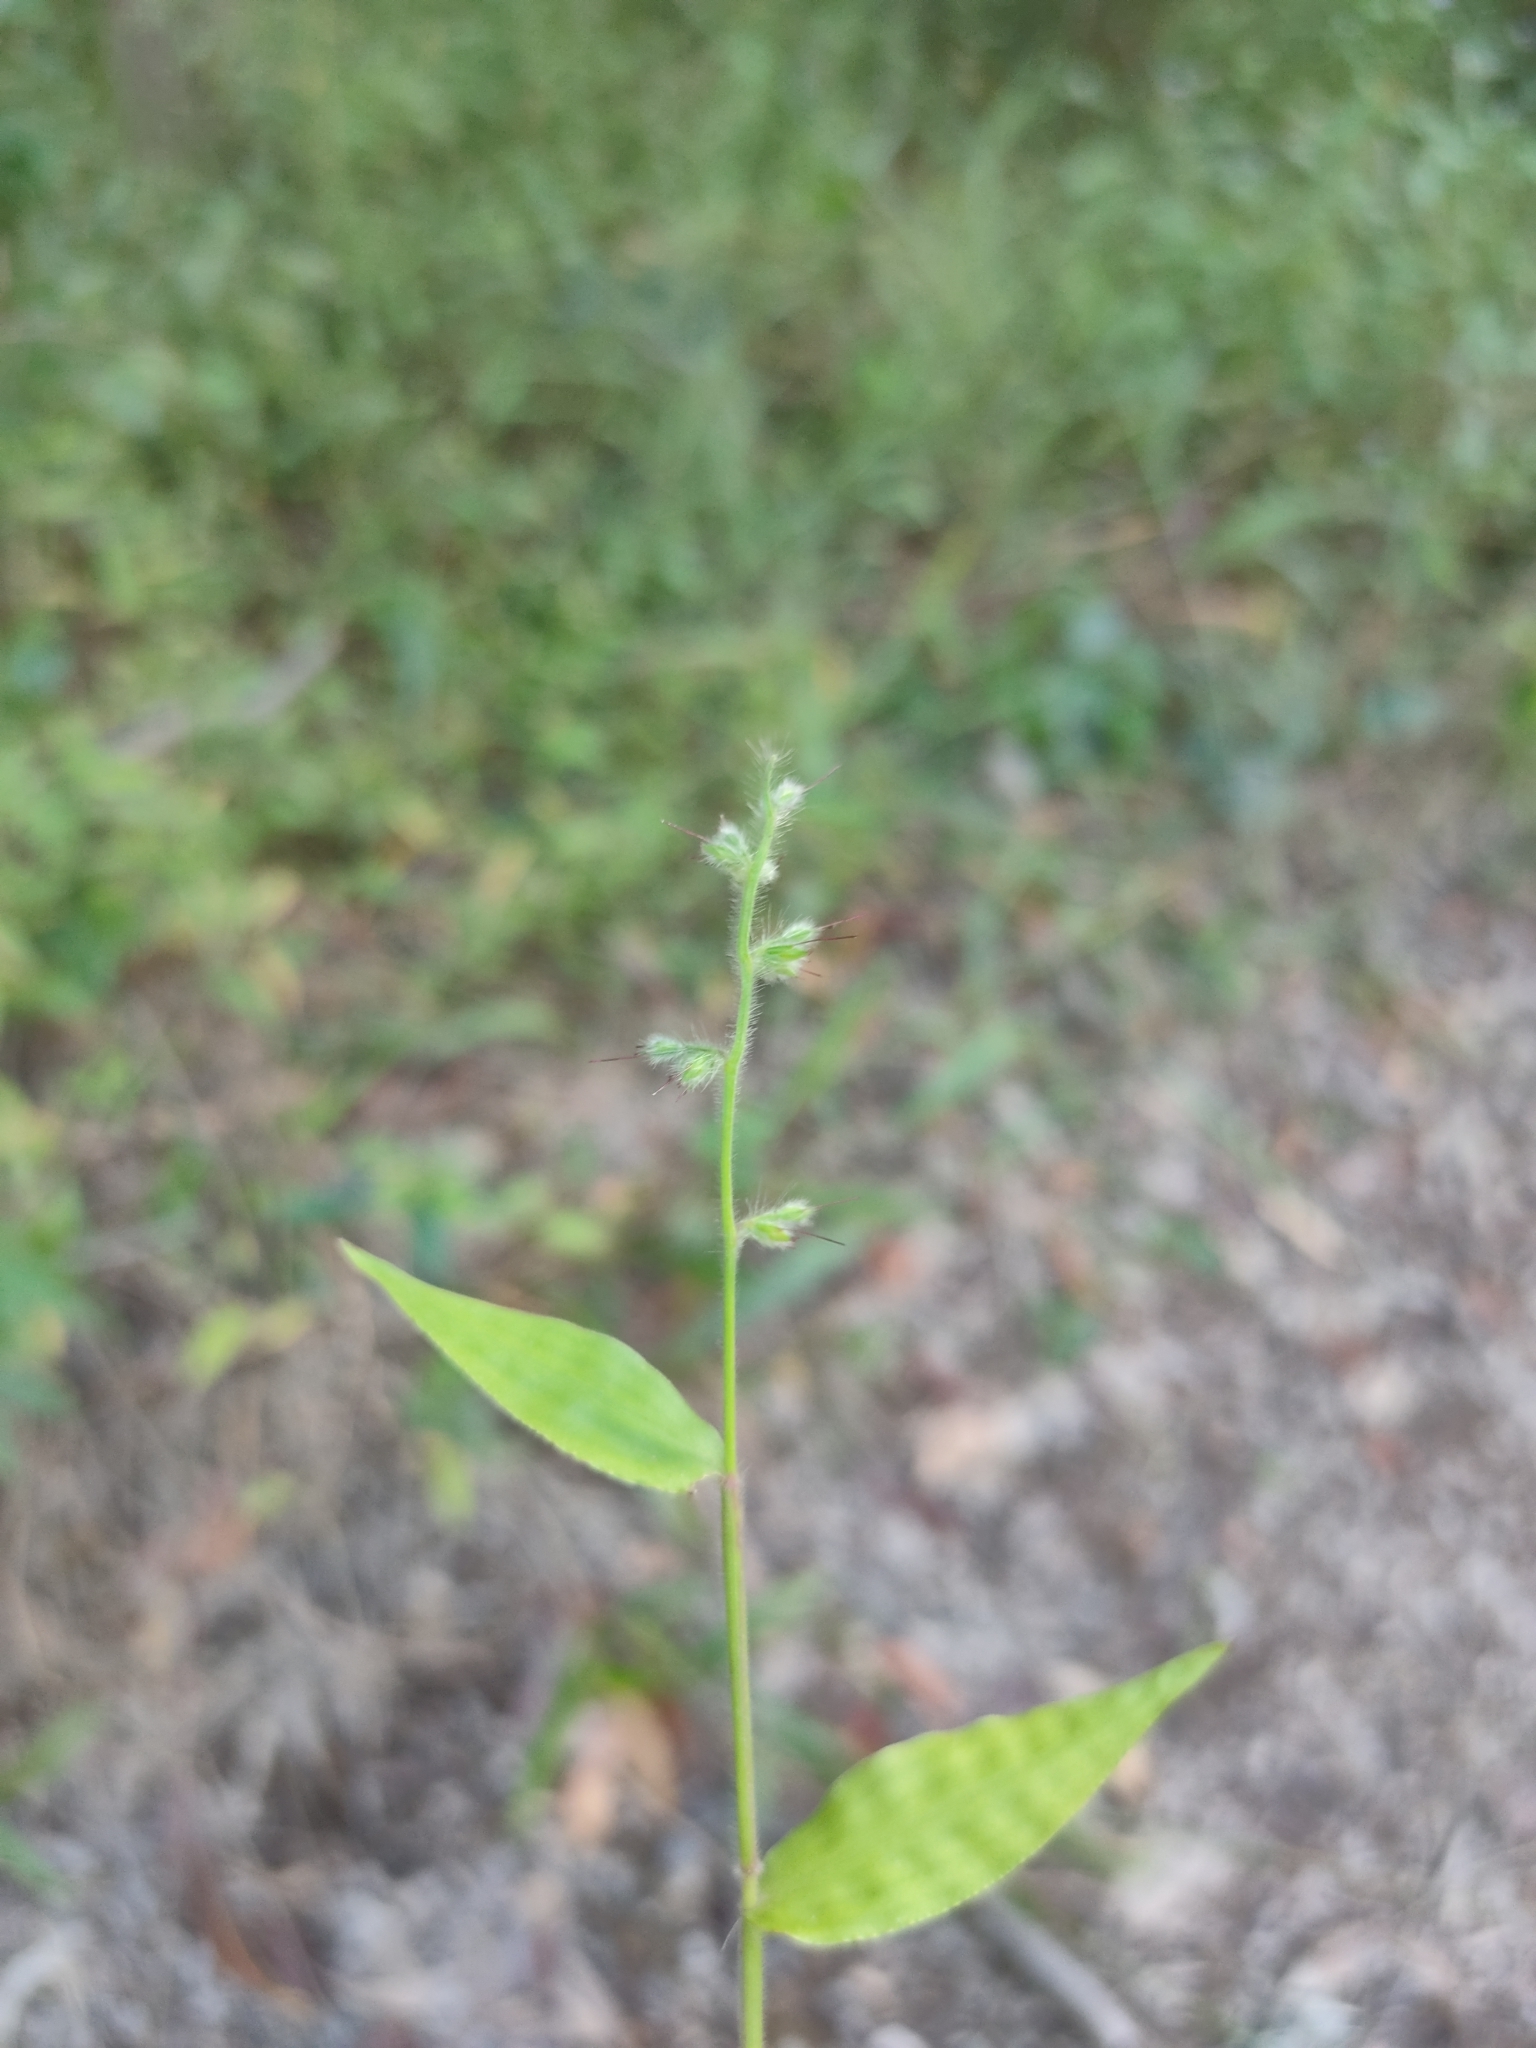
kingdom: Plantae
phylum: Tracheophyta
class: Liliopsida
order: Poales
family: Poaceae
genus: Oplismenus
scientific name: Oplismenus hirtellus
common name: Basketgrass
